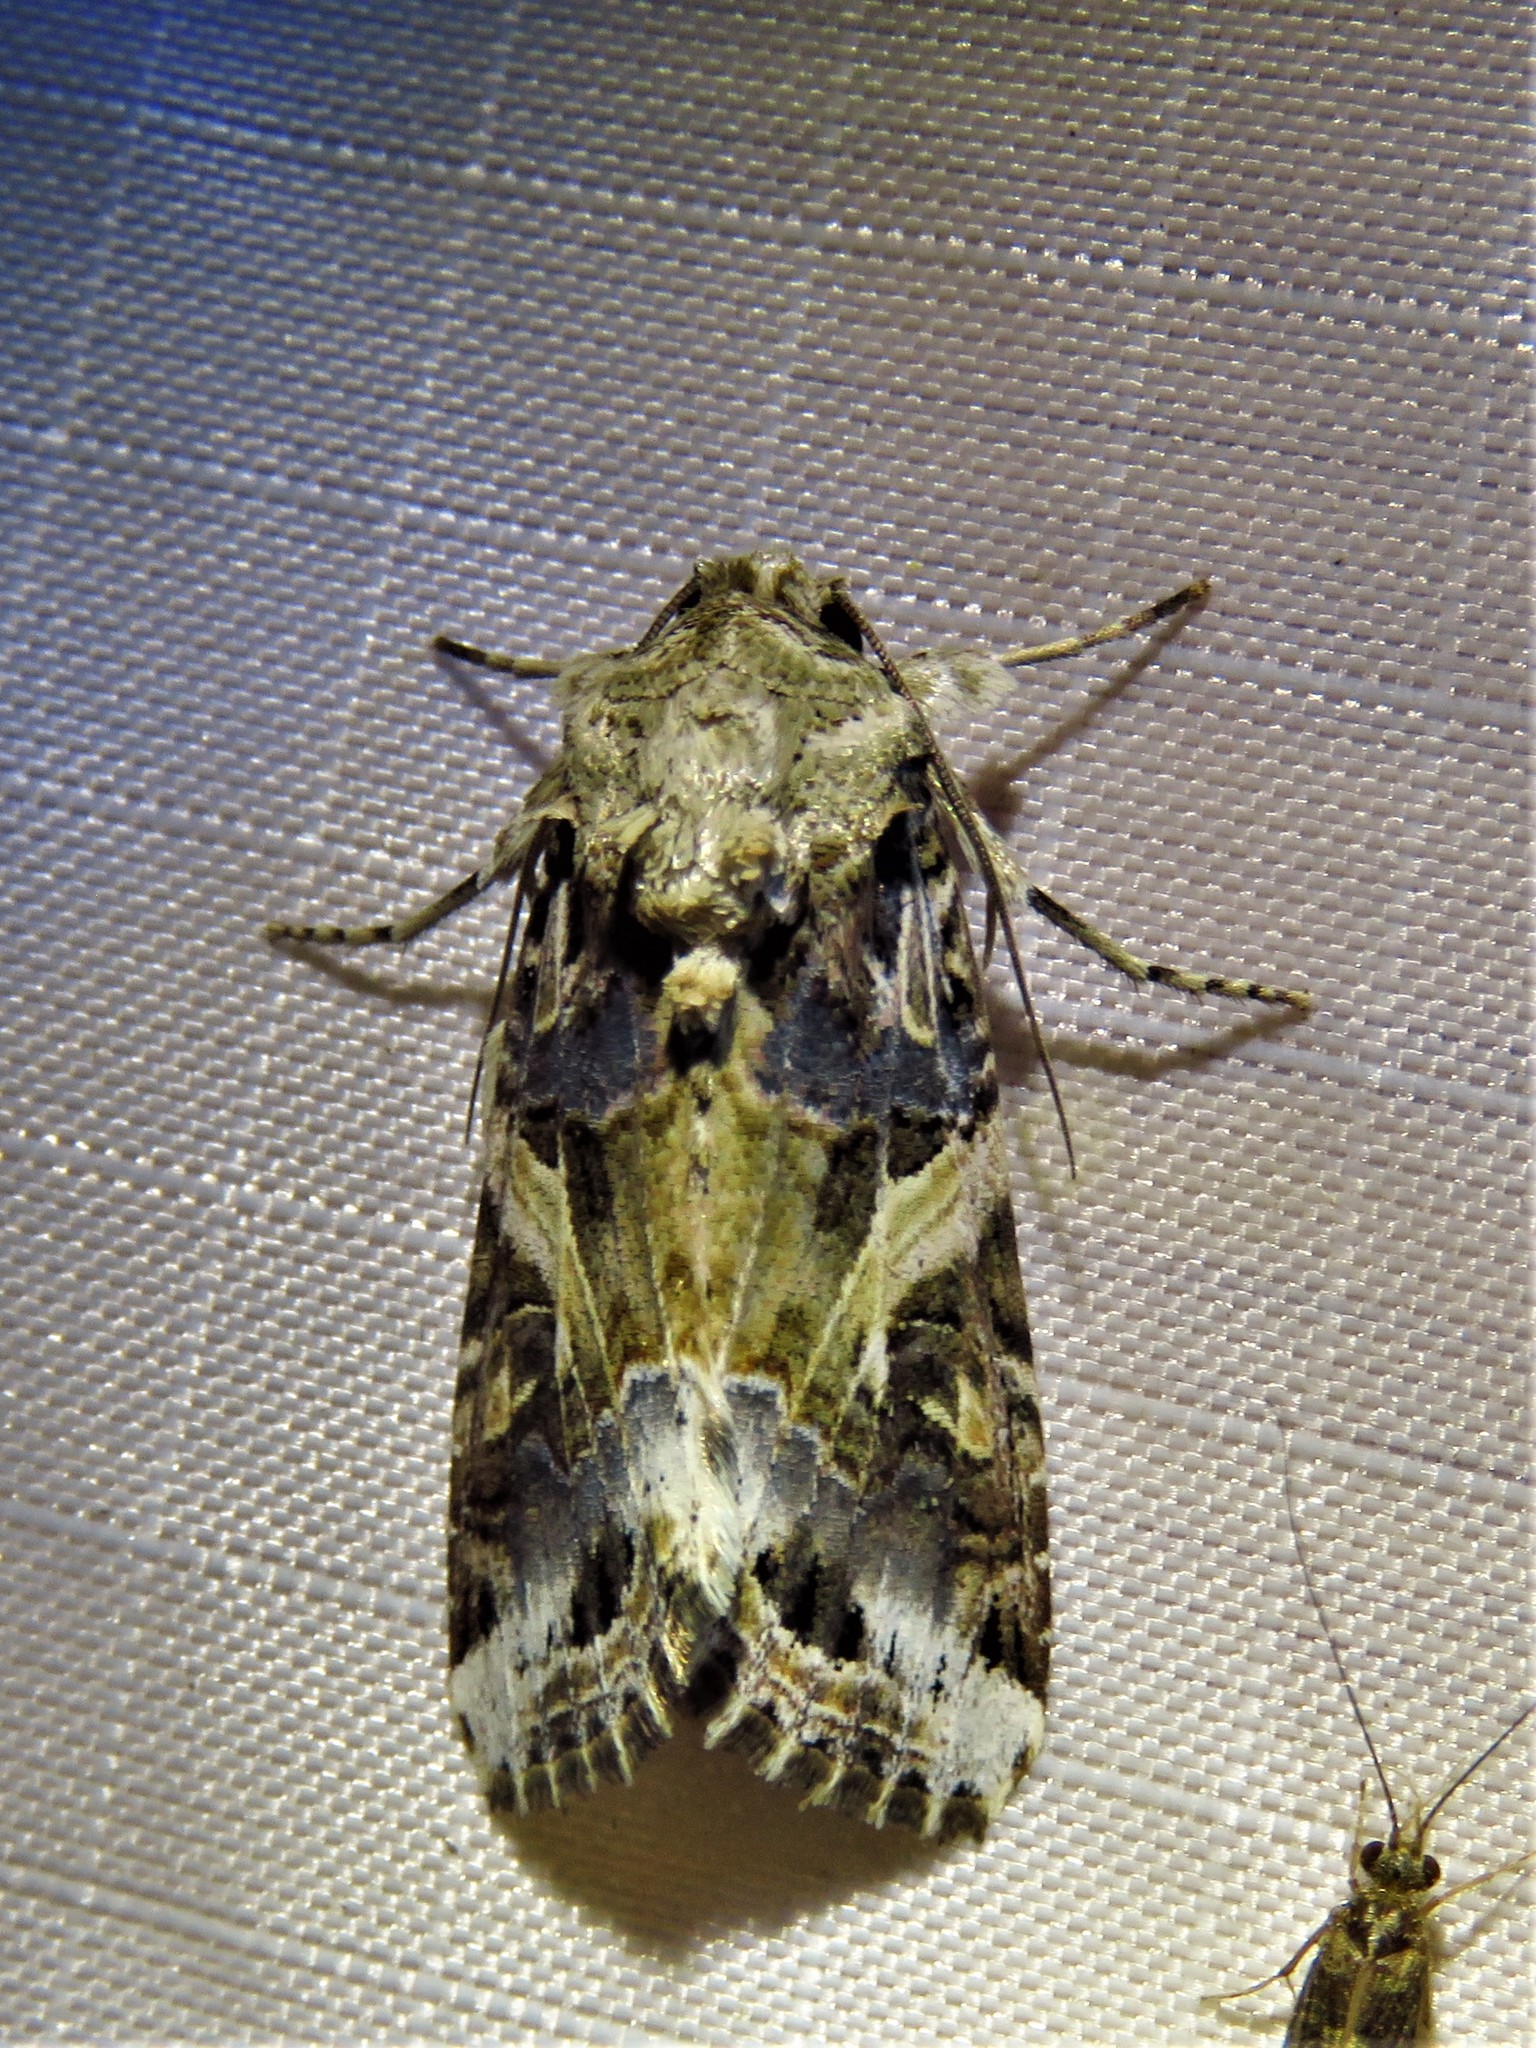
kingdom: Animalia
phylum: Arthropoda
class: Insecta
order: Lepidoptera
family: Noctuidae
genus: Spodoptera
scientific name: Spodoptera ornithogalli
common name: Yellow-striped armyworm
